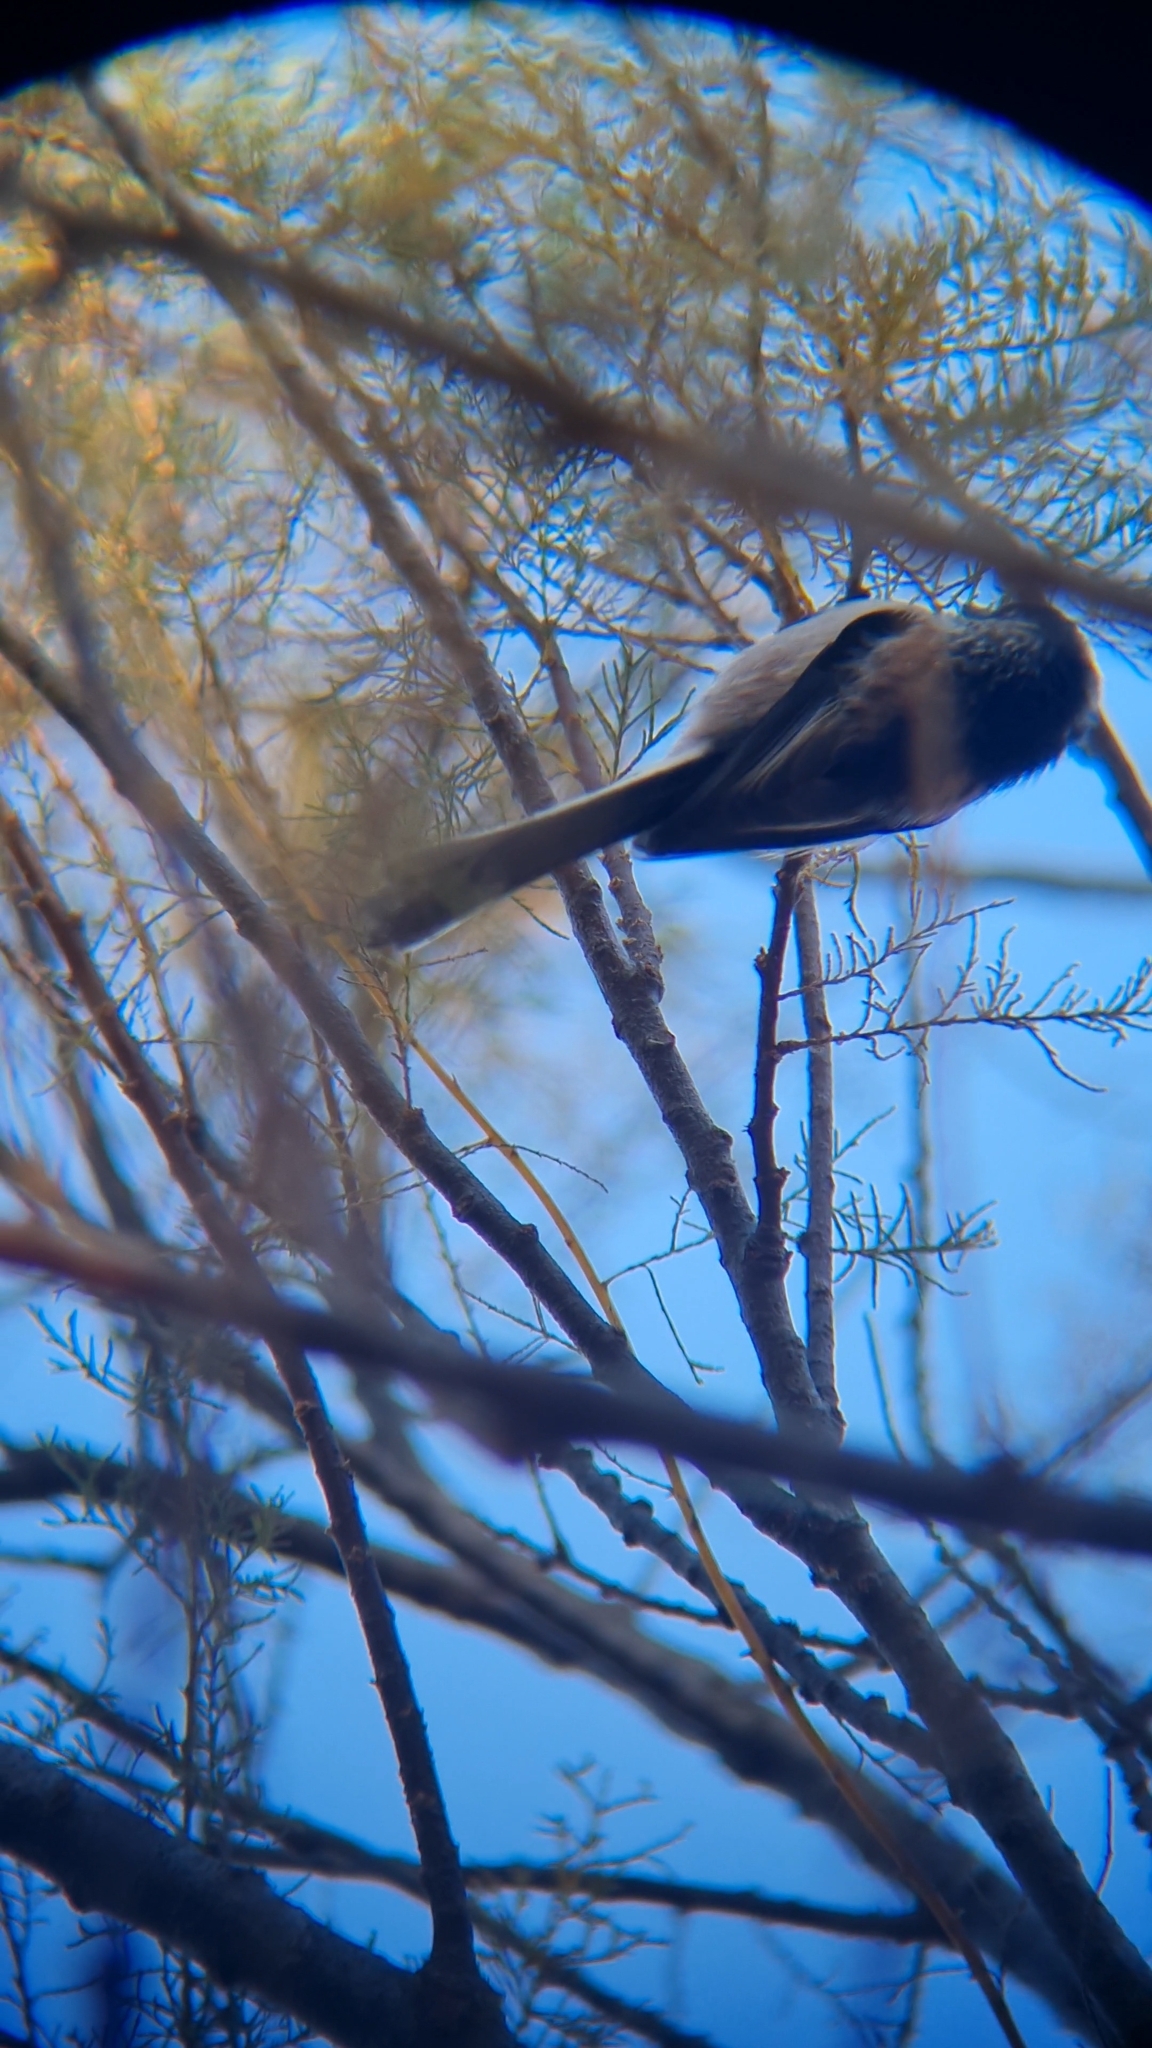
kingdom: Animalia
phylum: Chordata
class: Aves
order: Passeriformes
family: Aegithalidae
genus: Aegithalos
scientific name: Aegithalos caudatus
